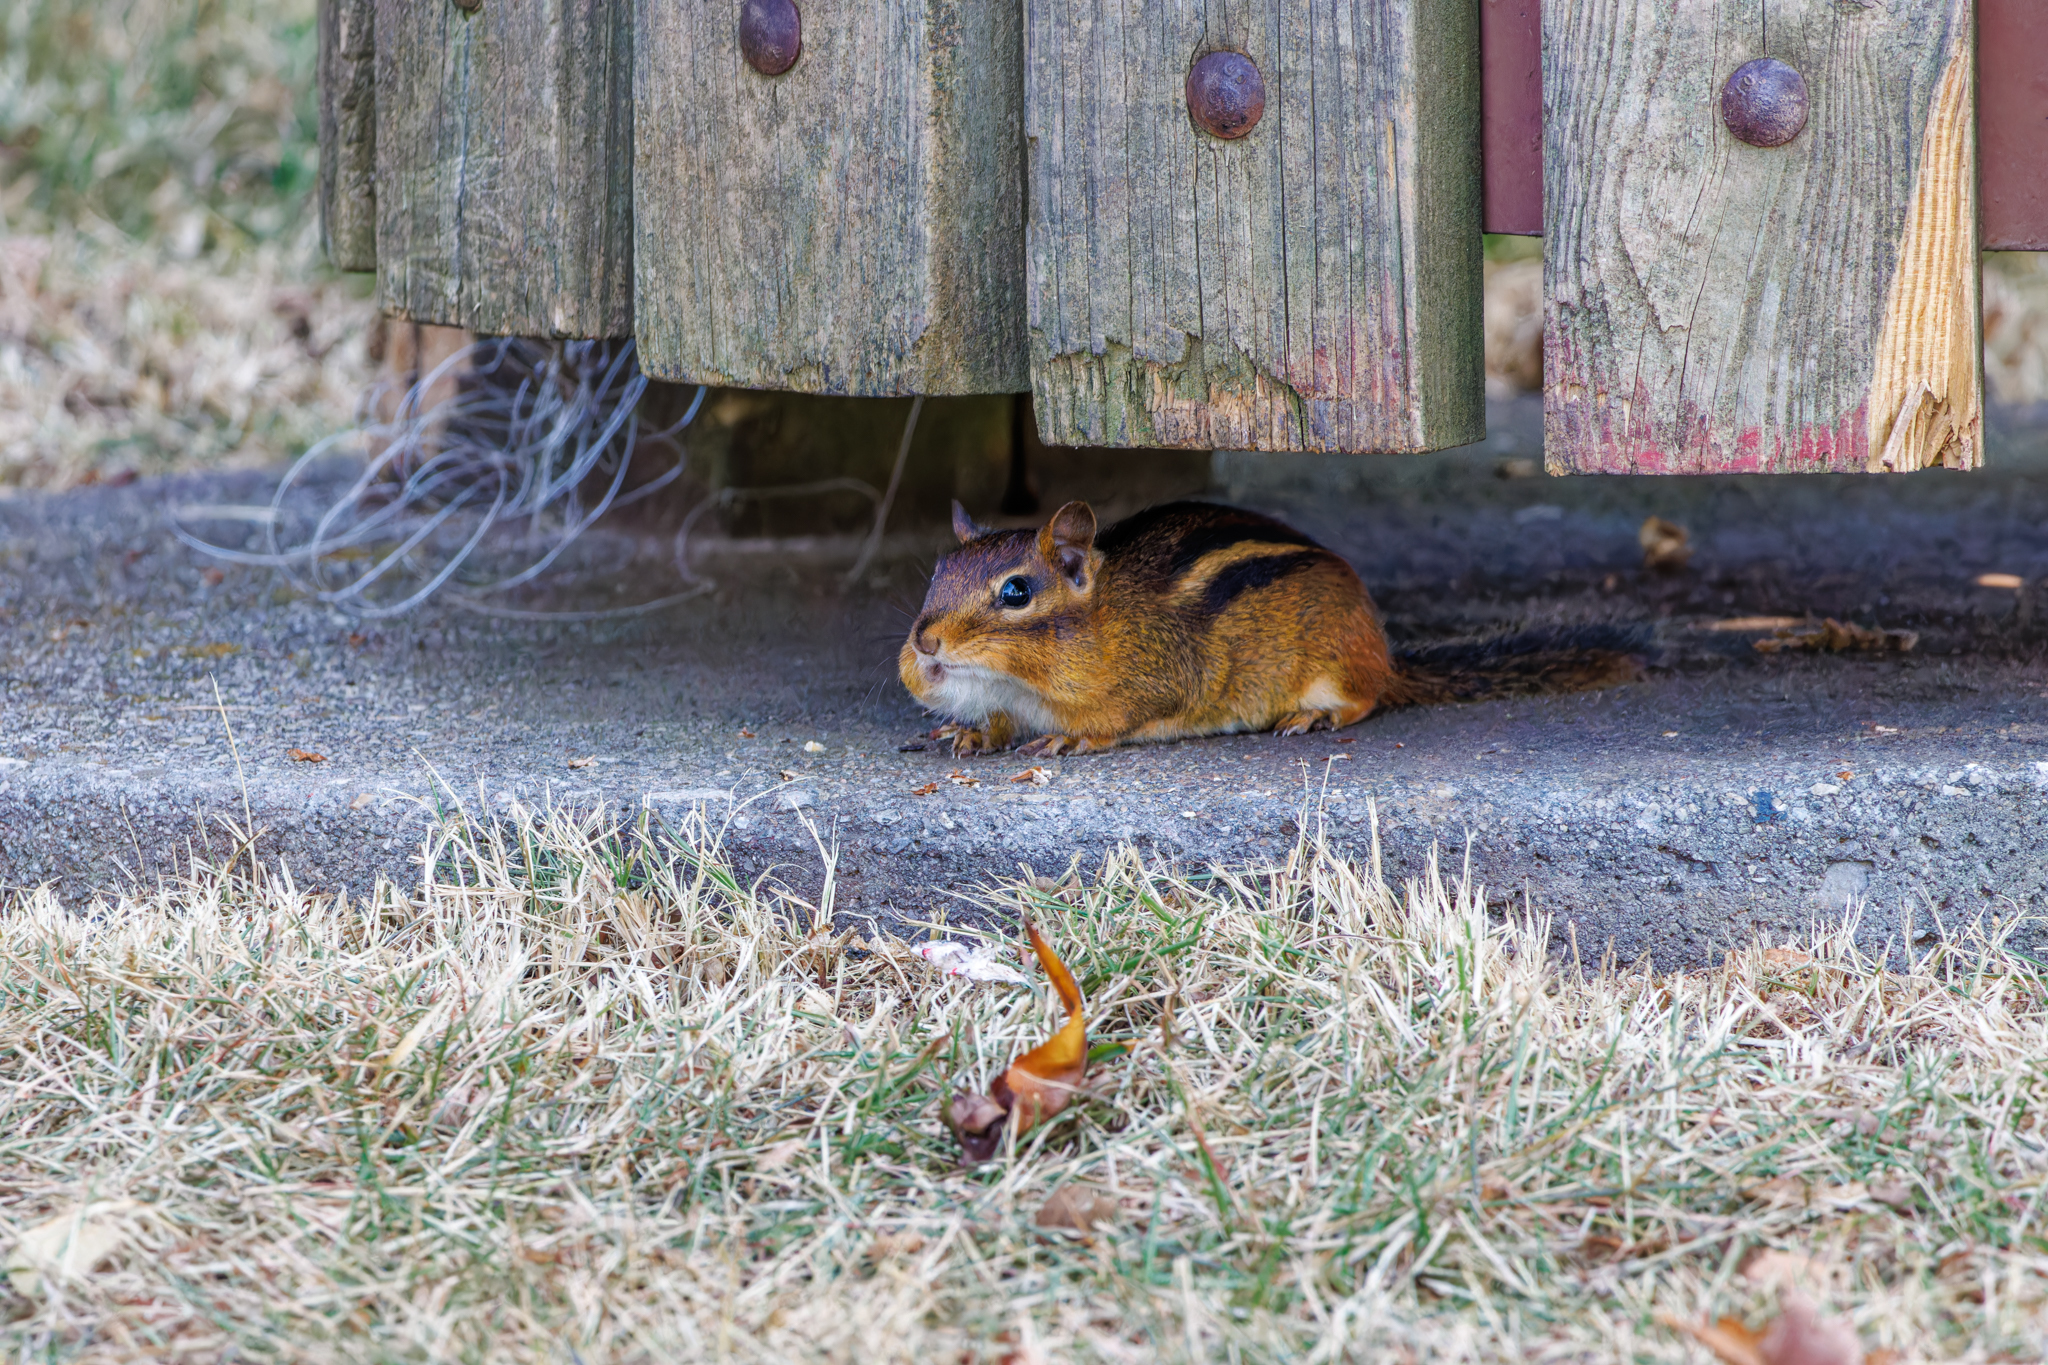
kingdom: Animalia
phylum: Chordata
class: Mammalia
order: Rodentia
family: Sciuridae
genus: Tamias
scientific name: Tamias striatus
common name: Eastern chipmunk
